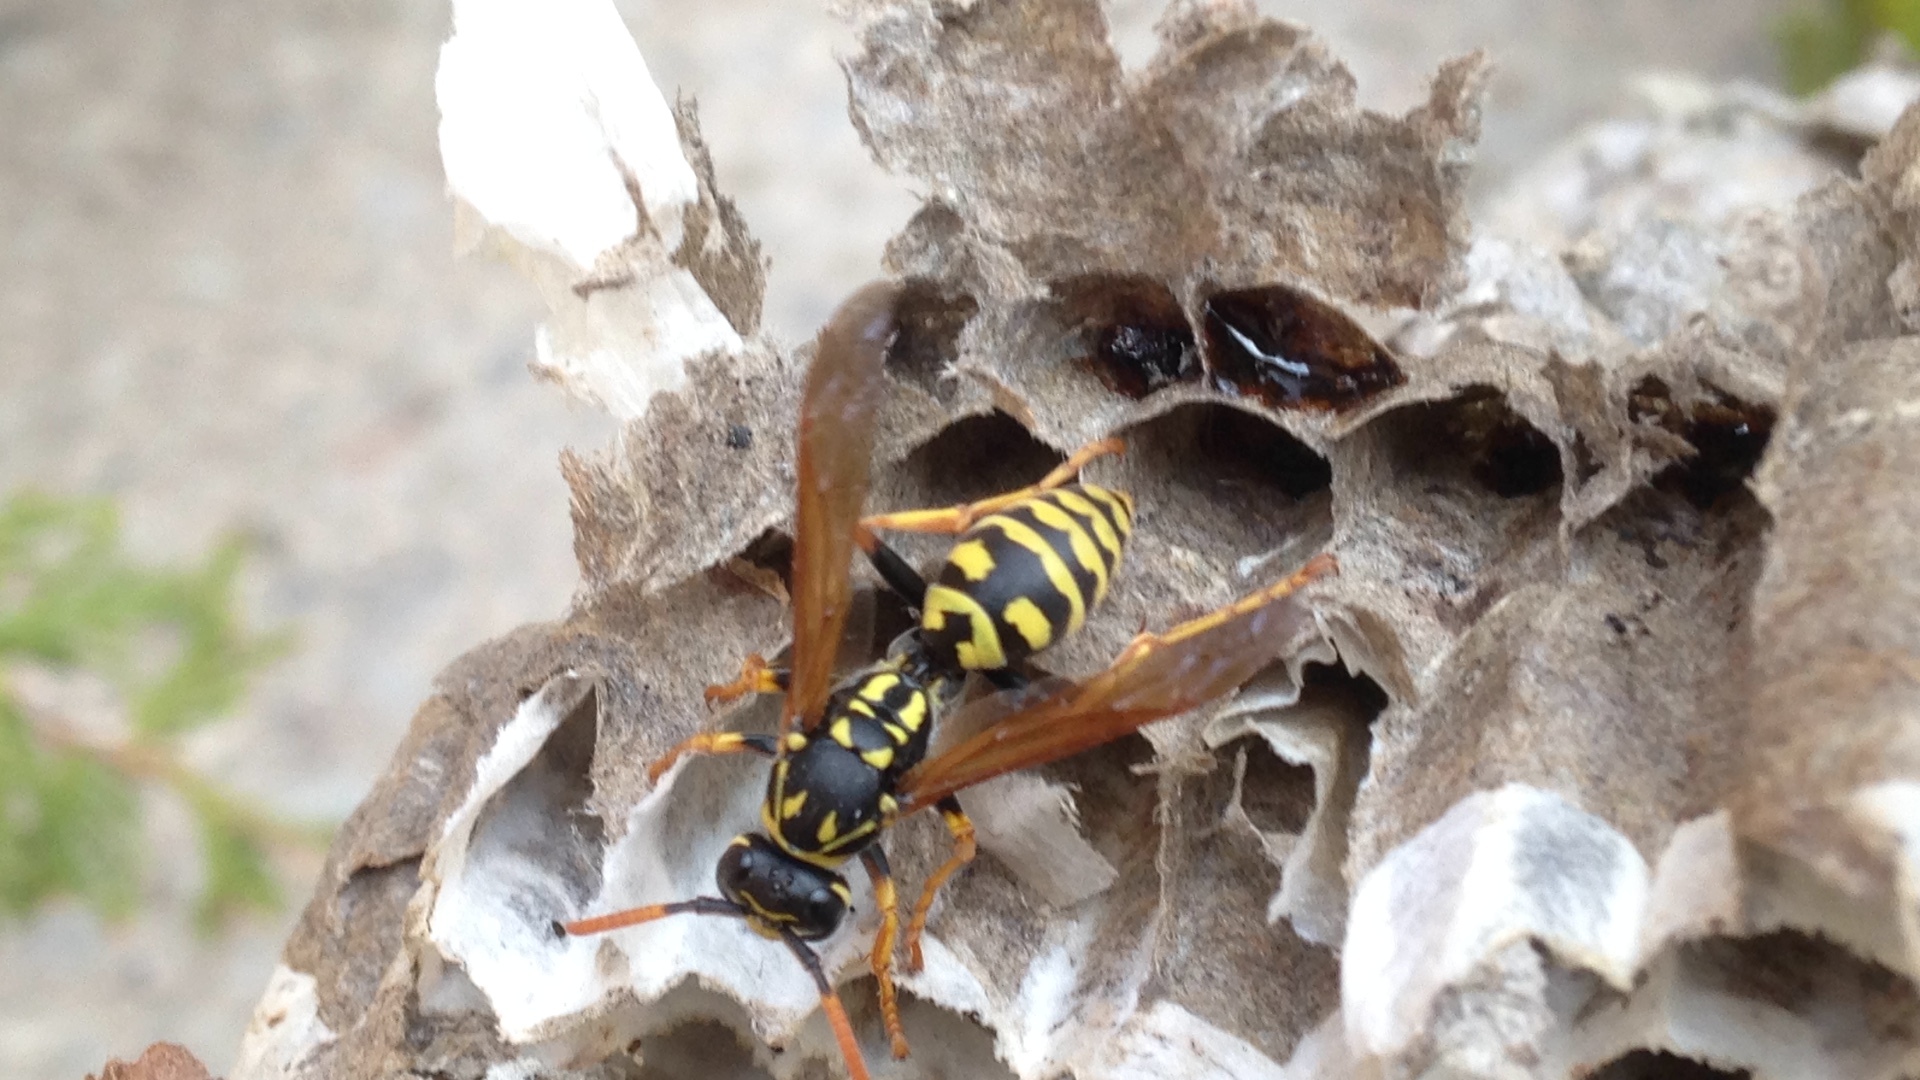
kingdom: Animalia
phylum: Arthropoda
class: Insecta
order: Hymenoptera
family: Eumenidae
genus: Polistes
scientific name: Polistes dominula
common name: Paper wasp
